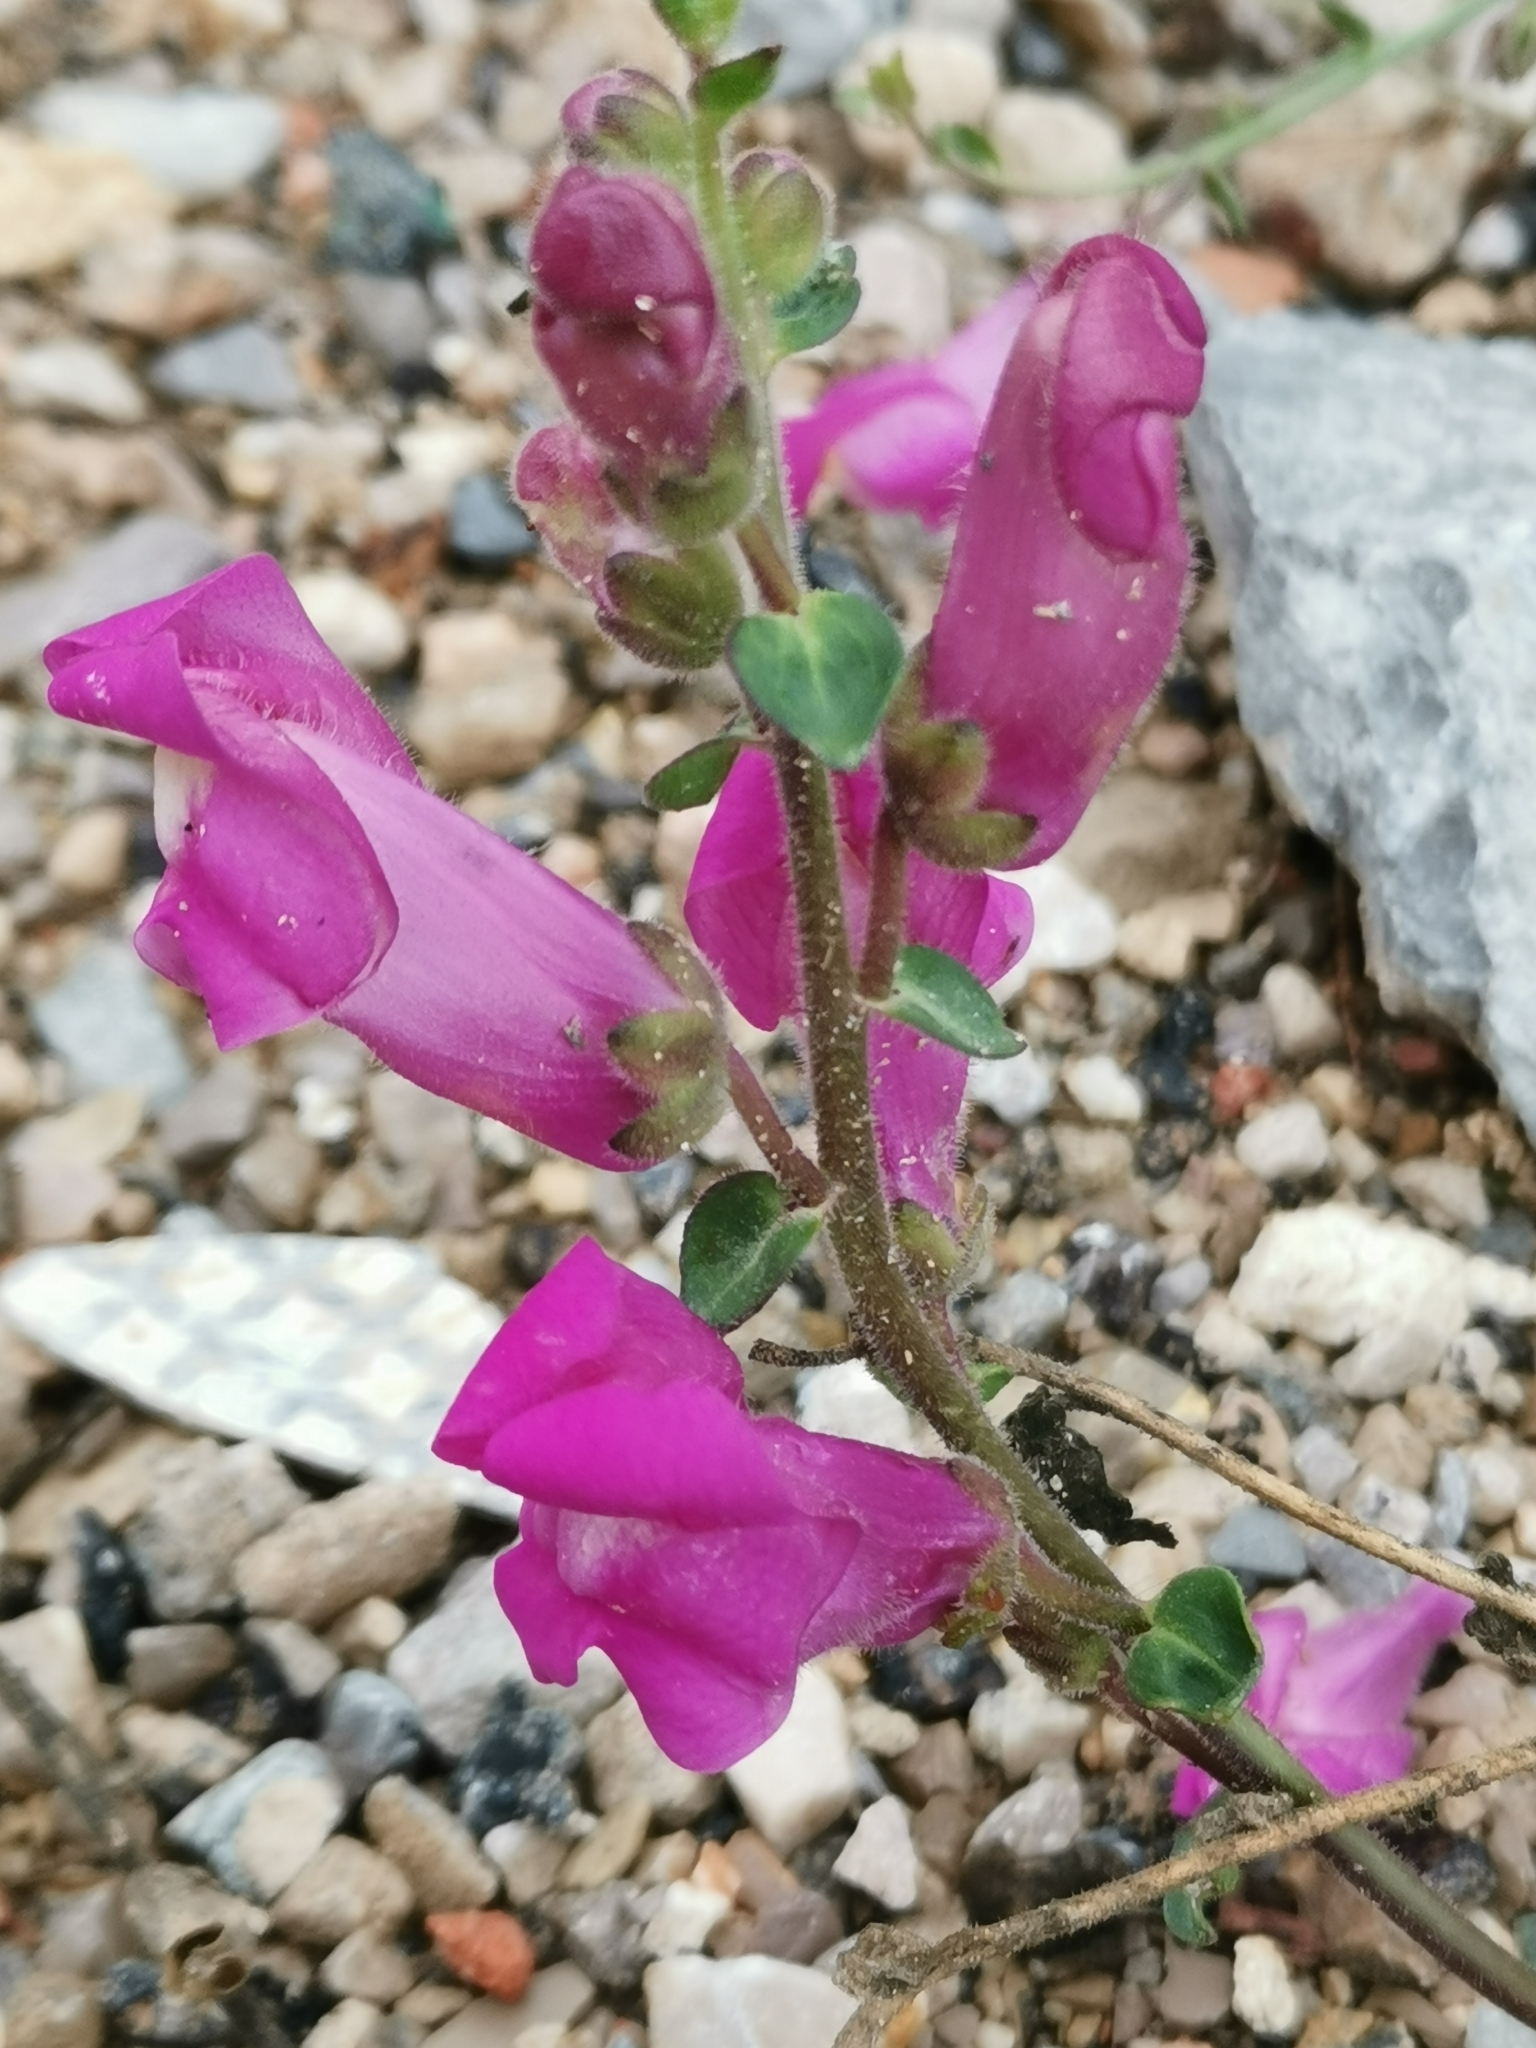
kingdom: Plantae
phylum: Tracheophyta
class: Magnoliopsida
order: Lamiales
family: Plantaginaceae
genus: Antirrhinum
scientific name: Antirrhinum majus
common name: Snapdragon
